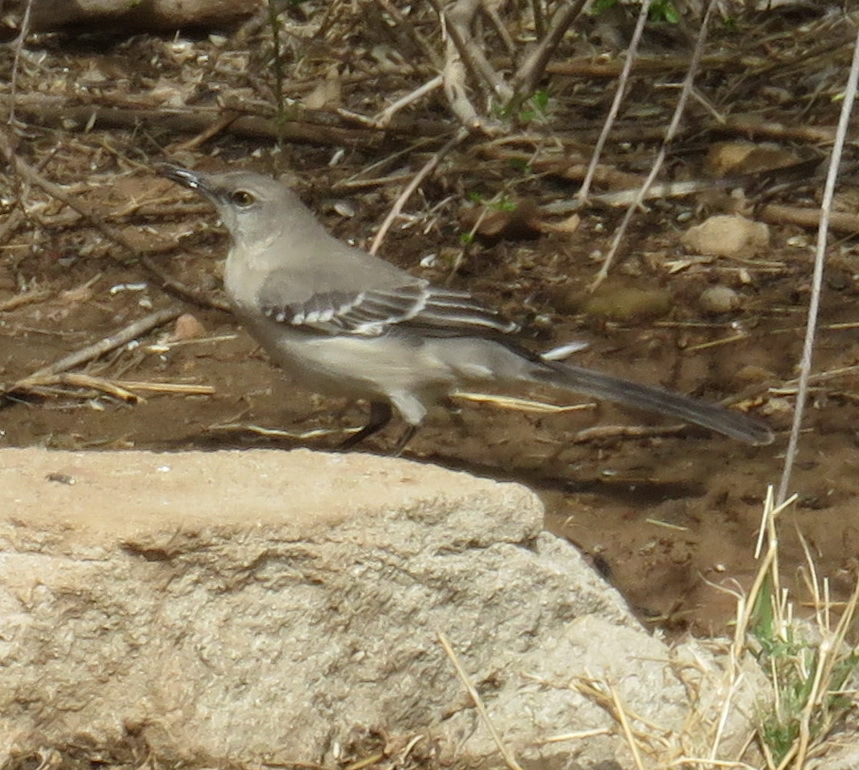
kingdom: Animalia
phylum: Chordata
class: Aves
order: Passeriformes
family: Mimidae
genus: Mimus
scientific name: Mimus polyglottos
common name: Northern mockingbird
